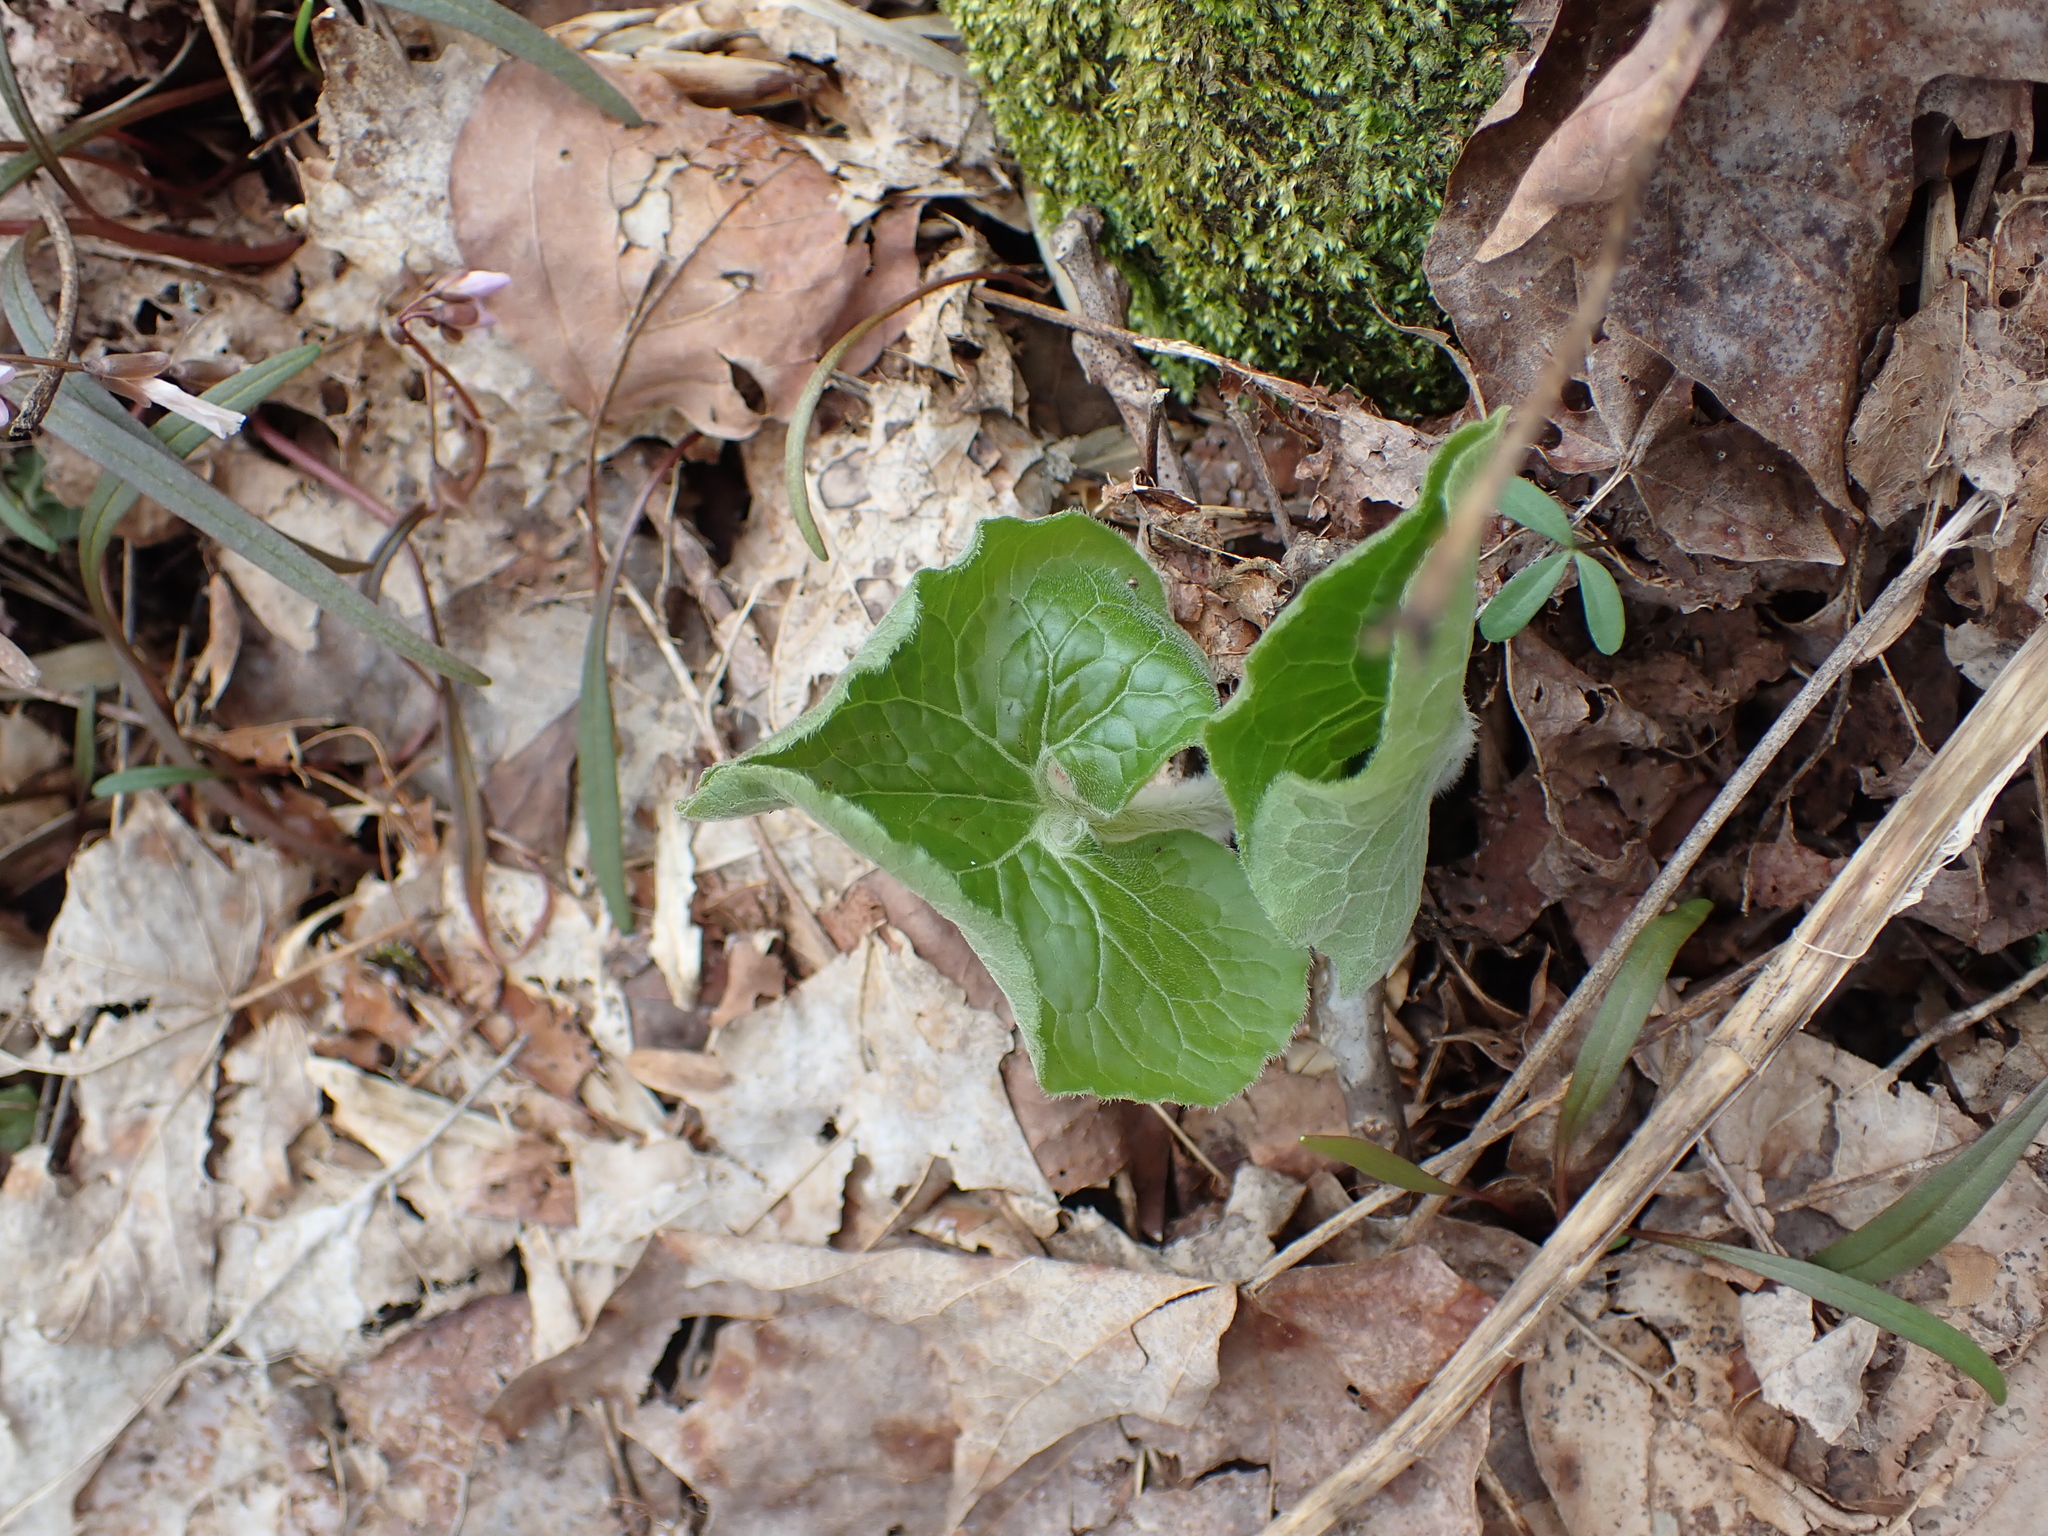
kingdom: Plantae
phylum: Tracheophyta
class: Magnoliopsida
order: Piperales
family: Aristolochiaceae
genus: Asarum
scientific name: Asarum canadense
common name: Wild ginger
